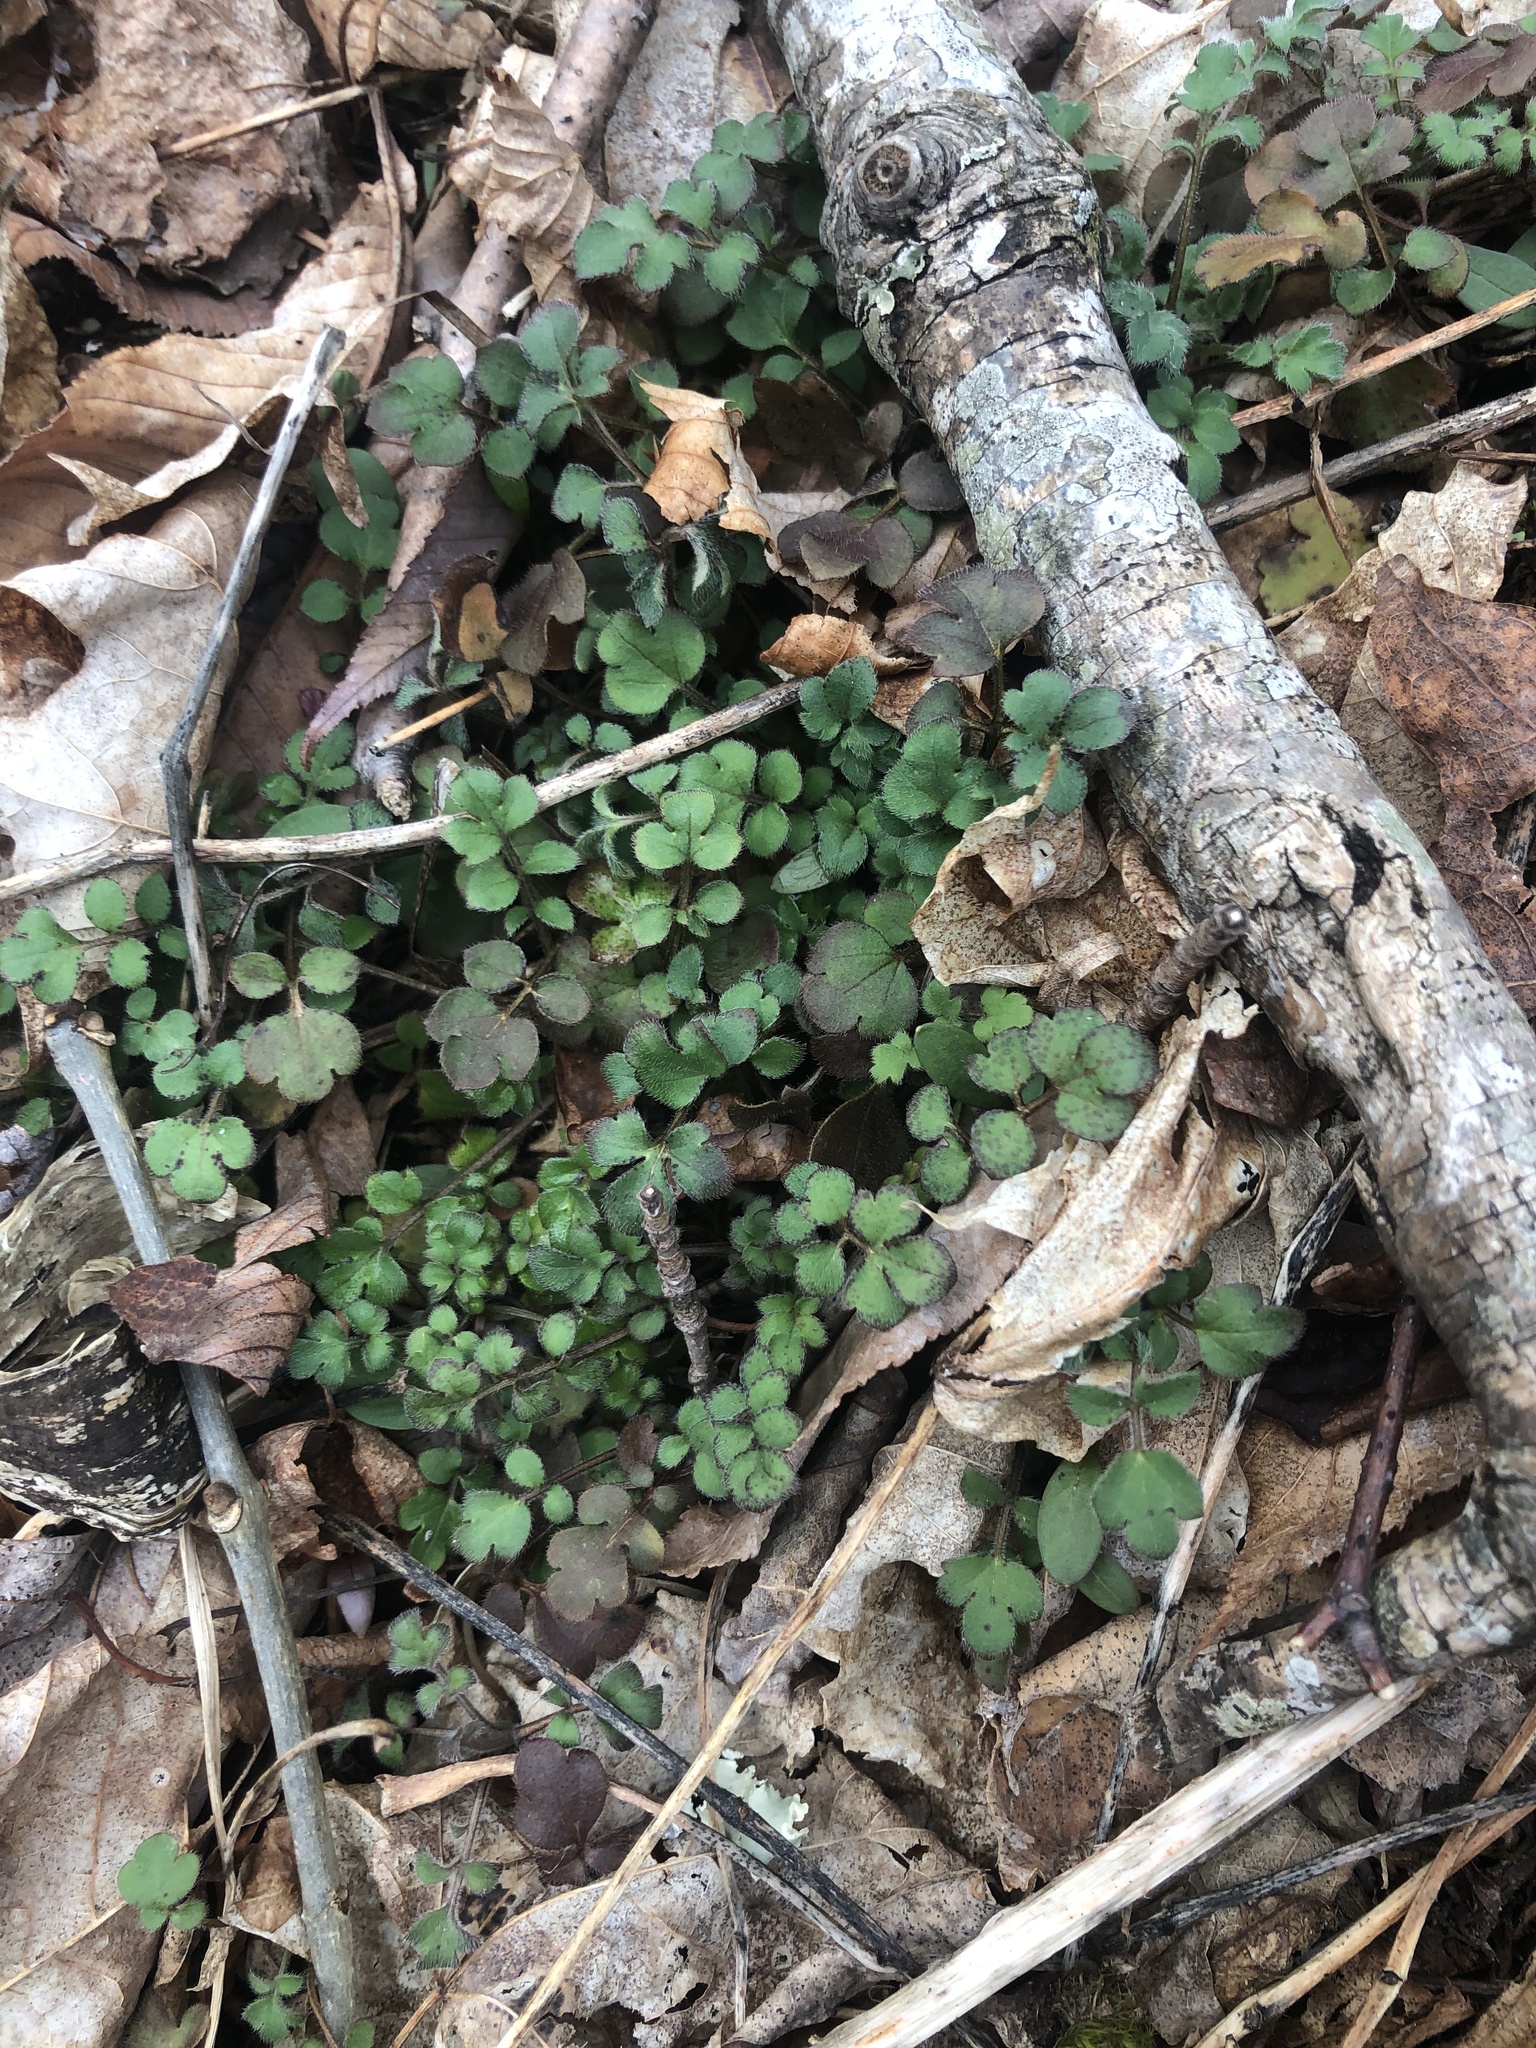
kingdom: Plantae
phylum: Tracheophyta
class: Magnoliopsida
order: Boraginales
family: Hydrophyllaceae
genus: Phacelia
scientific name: Phacelia fimbriata
